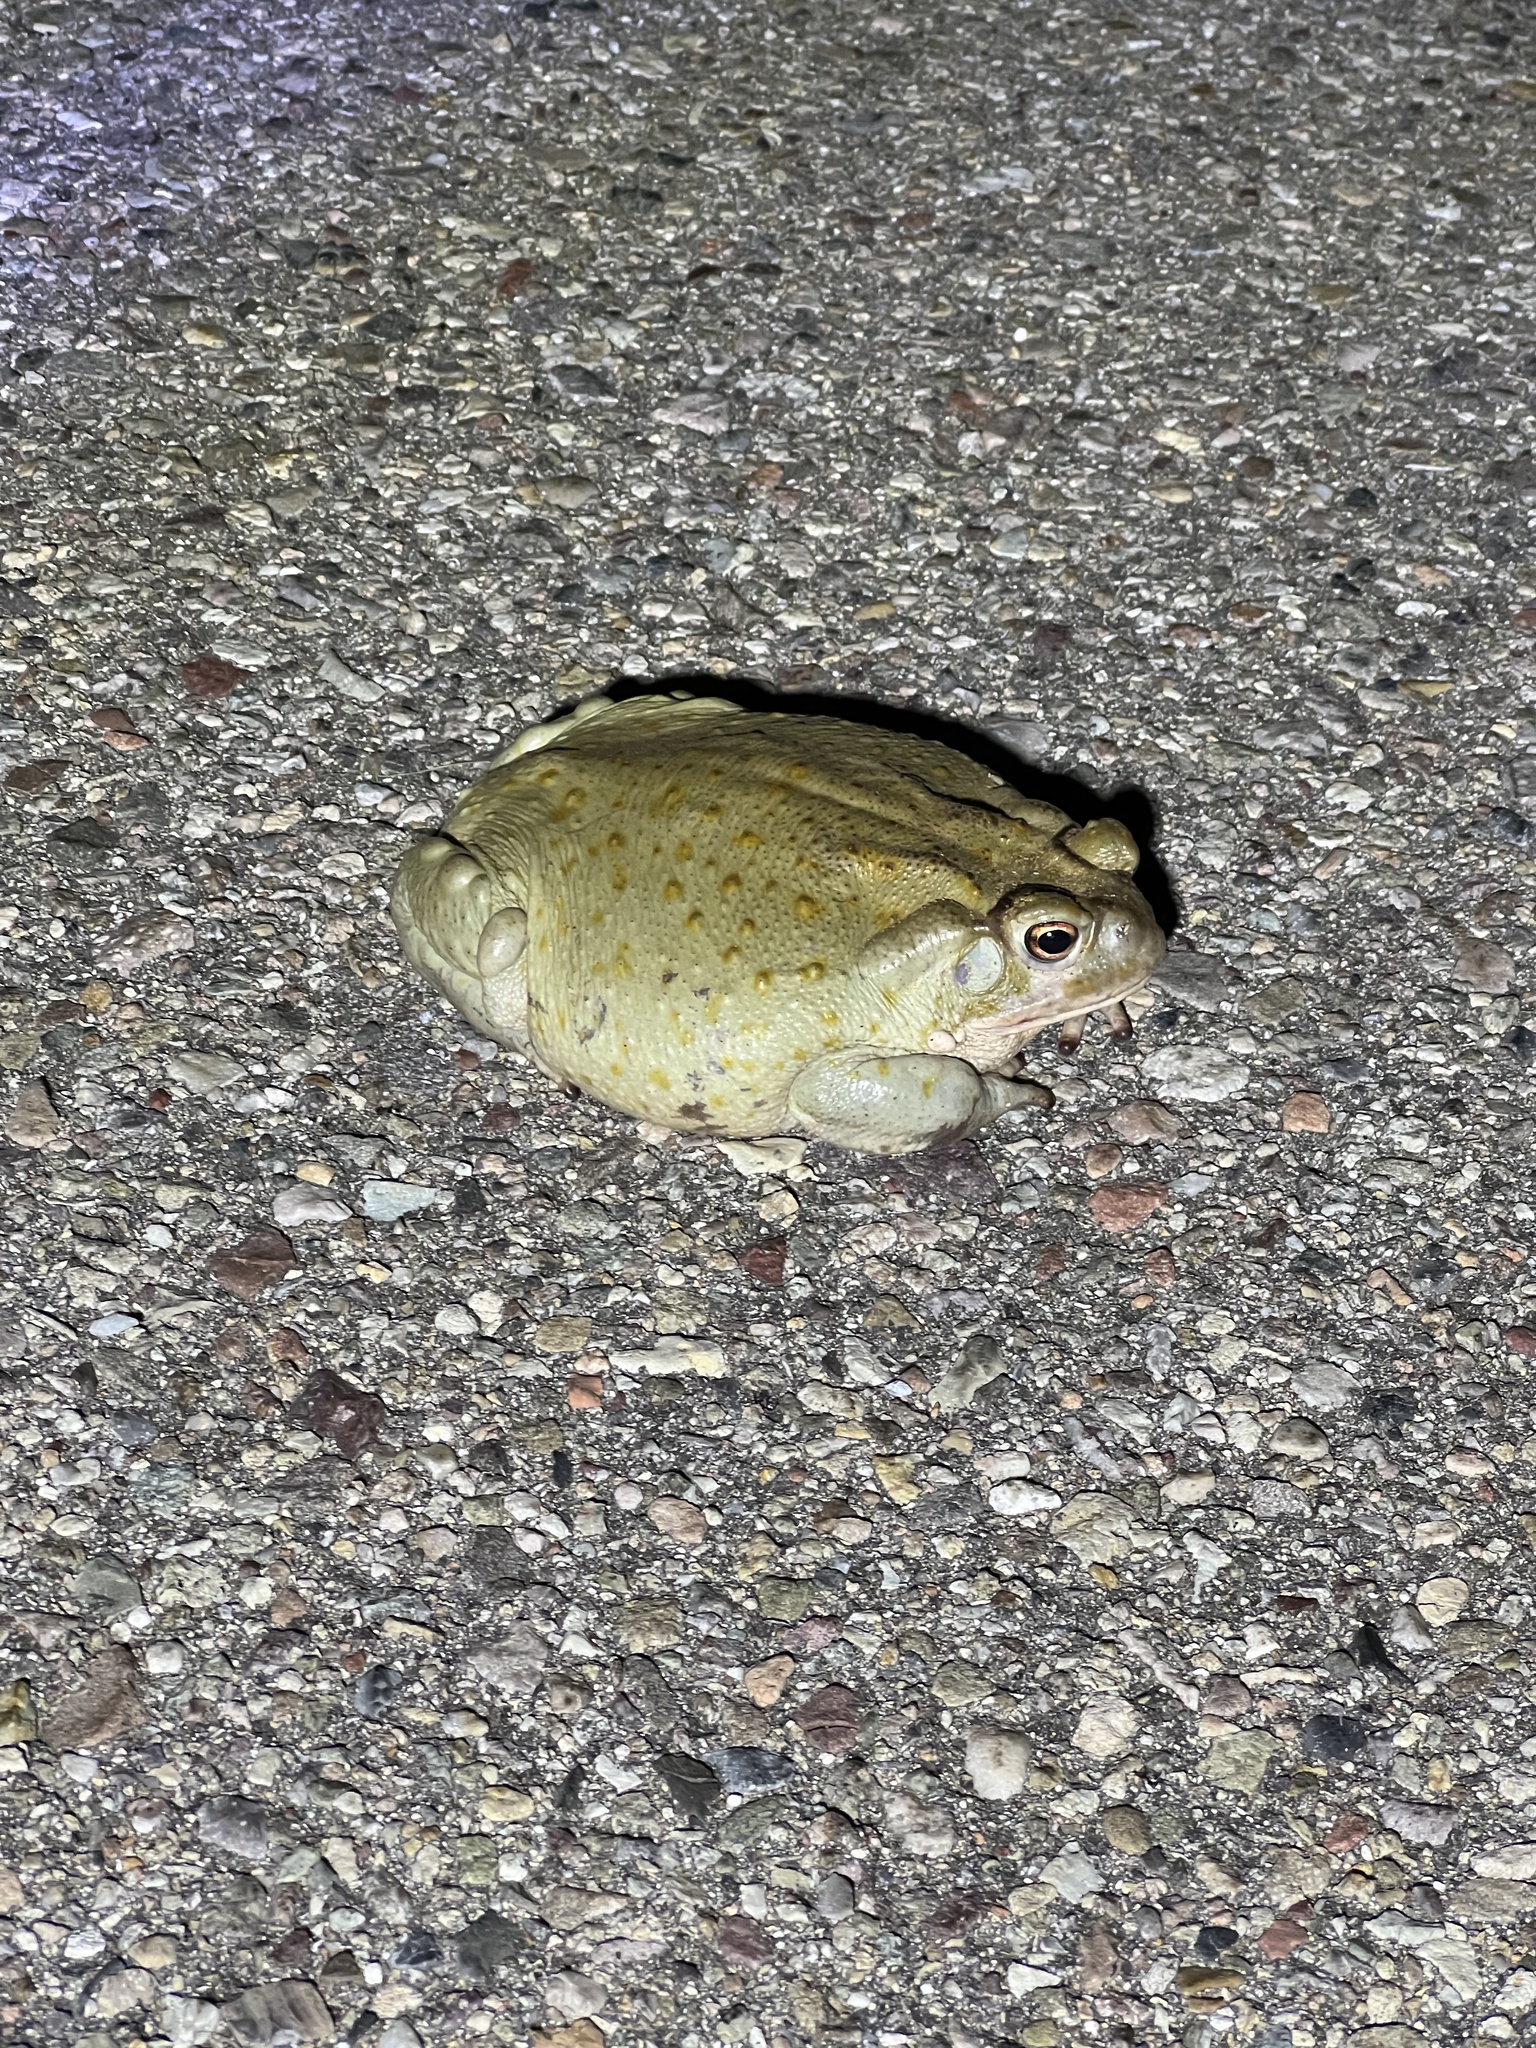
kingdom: Animalia
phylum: Chordata
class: Amphibia
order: Anura
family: Bufonidae
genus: Incilius
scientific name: Incilius alvarius
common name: Sonoran desert toad
